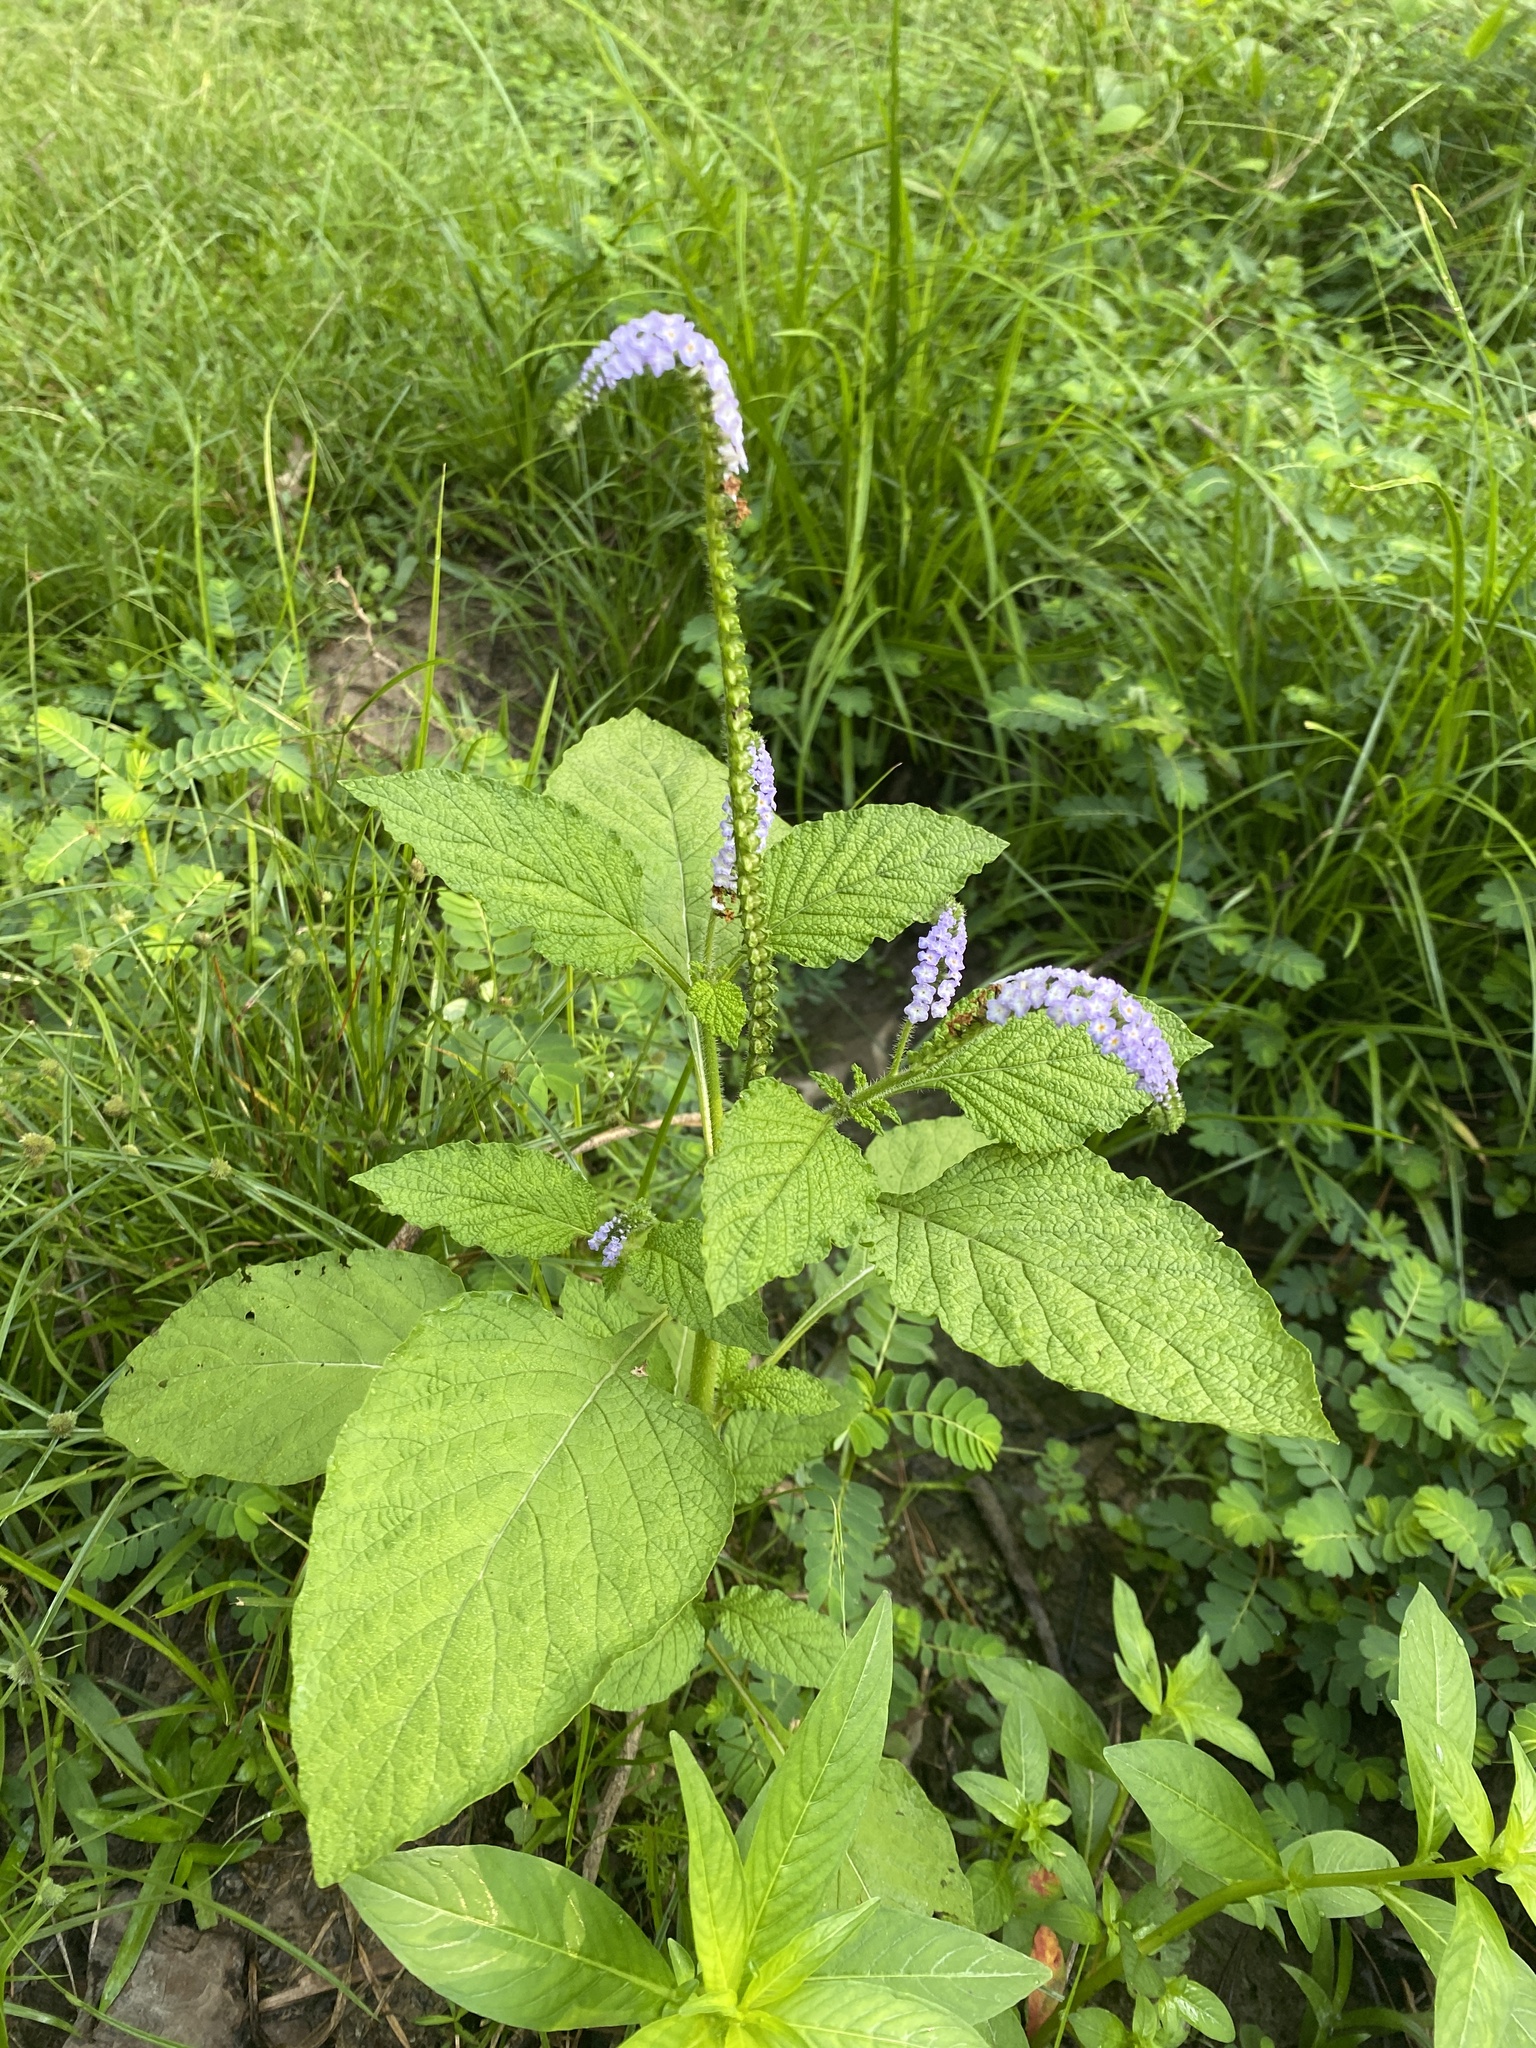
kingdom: Plantae
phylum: Tracheophyta
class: Magnoliopsida
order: Boraginales
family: Heliotropiaceae
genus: Heliotropium
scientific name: Heliotropium indicum
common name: Indian heliotrope
